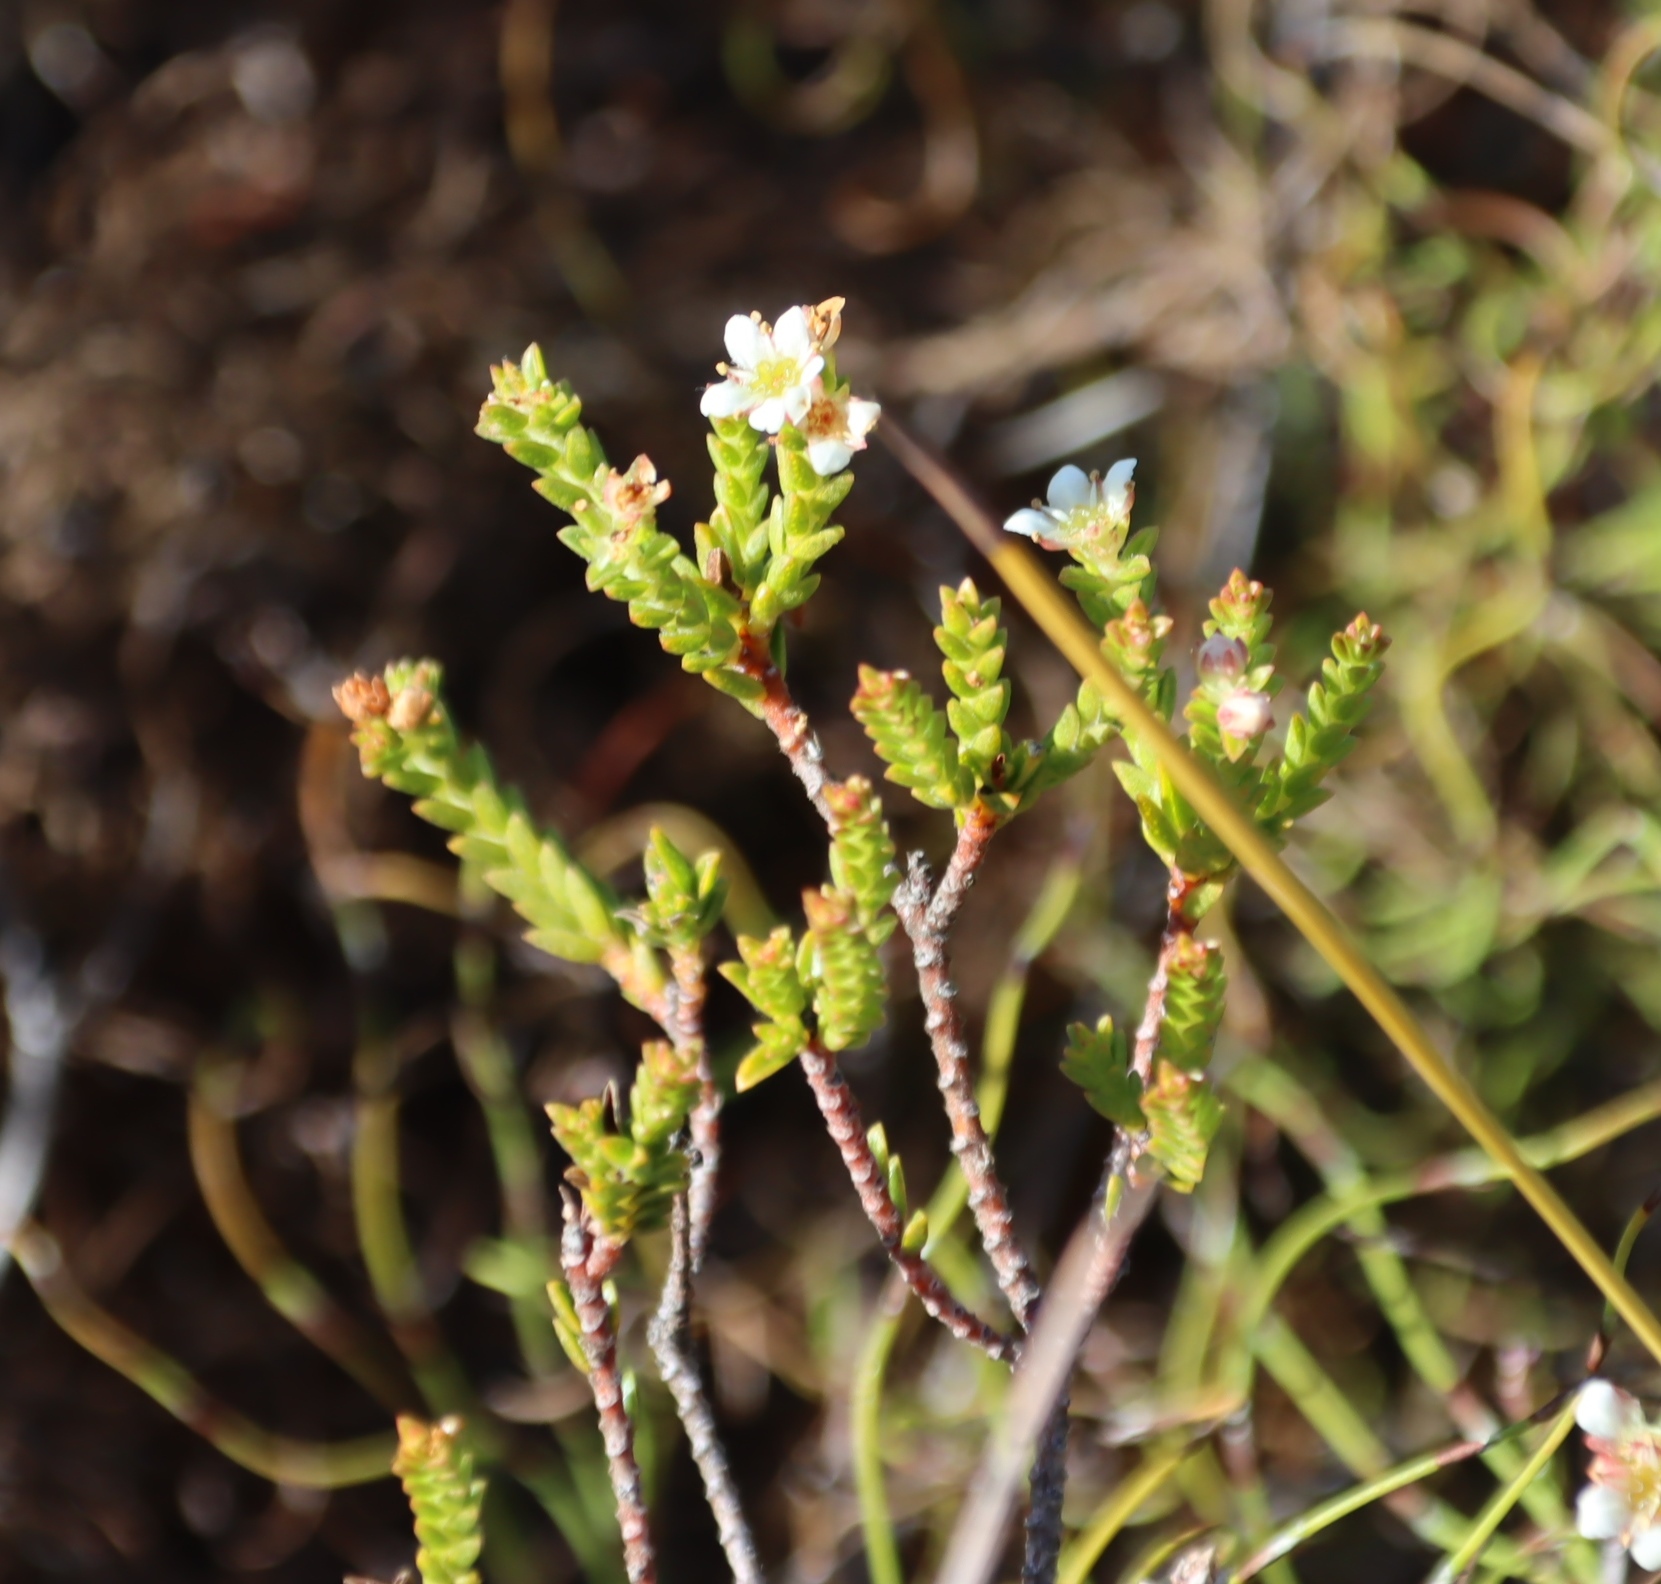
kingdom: Plantae
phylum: Tracheophyta
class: Magnoliopsida
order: Sapindales
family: Rutaceae
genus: Diosma
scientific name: Diosma oppositifolia
